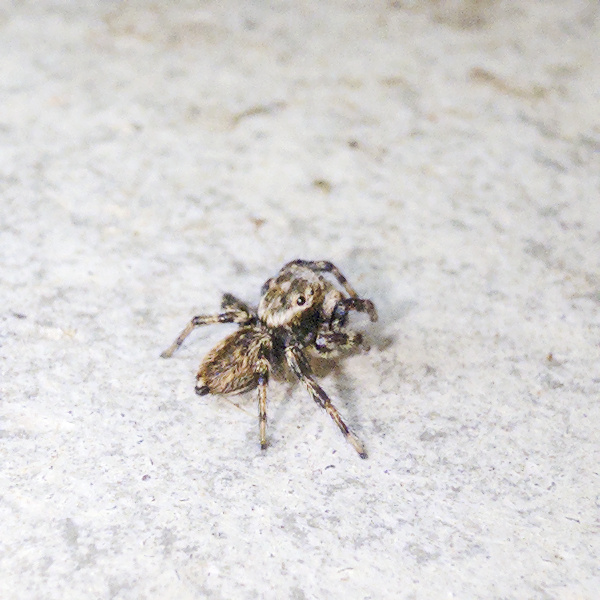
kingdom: Animalia
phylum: Arthropoda
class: Arachnida
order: Araneae
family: Salticidae
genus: Maratus
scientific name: Maratus griseus
